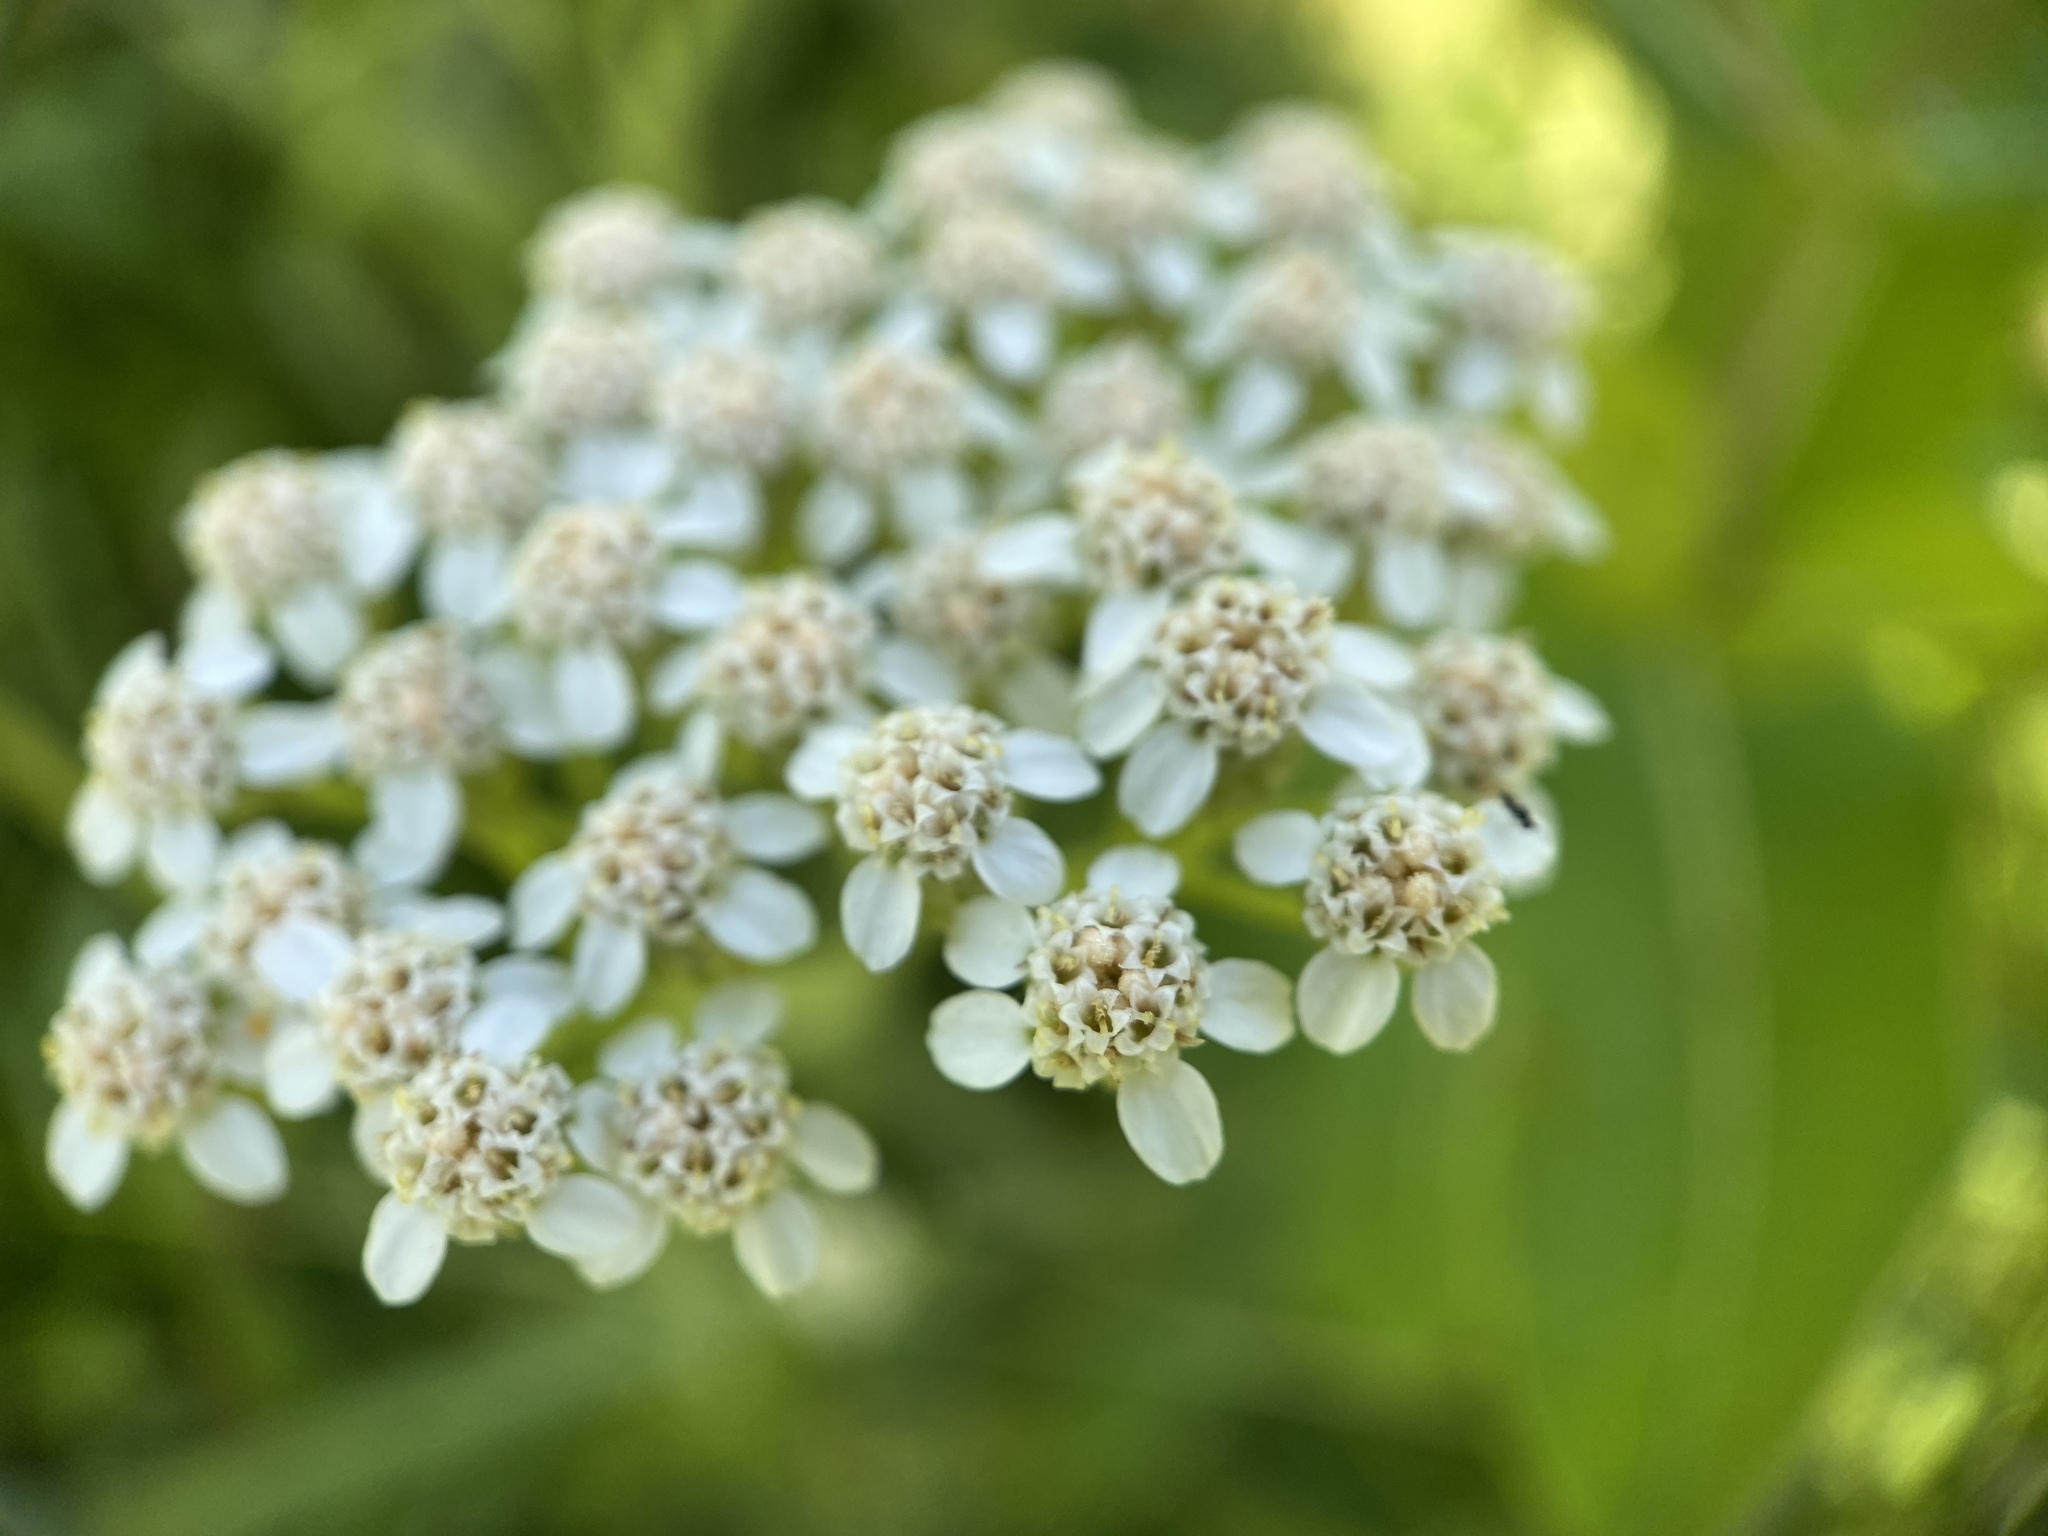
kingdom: Plantae
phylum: Tracheophyta
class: Magnoliopsida
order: Asterales
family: Asteraceae
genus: Achillea
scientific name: Achillea millefolium
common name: Yarrow
